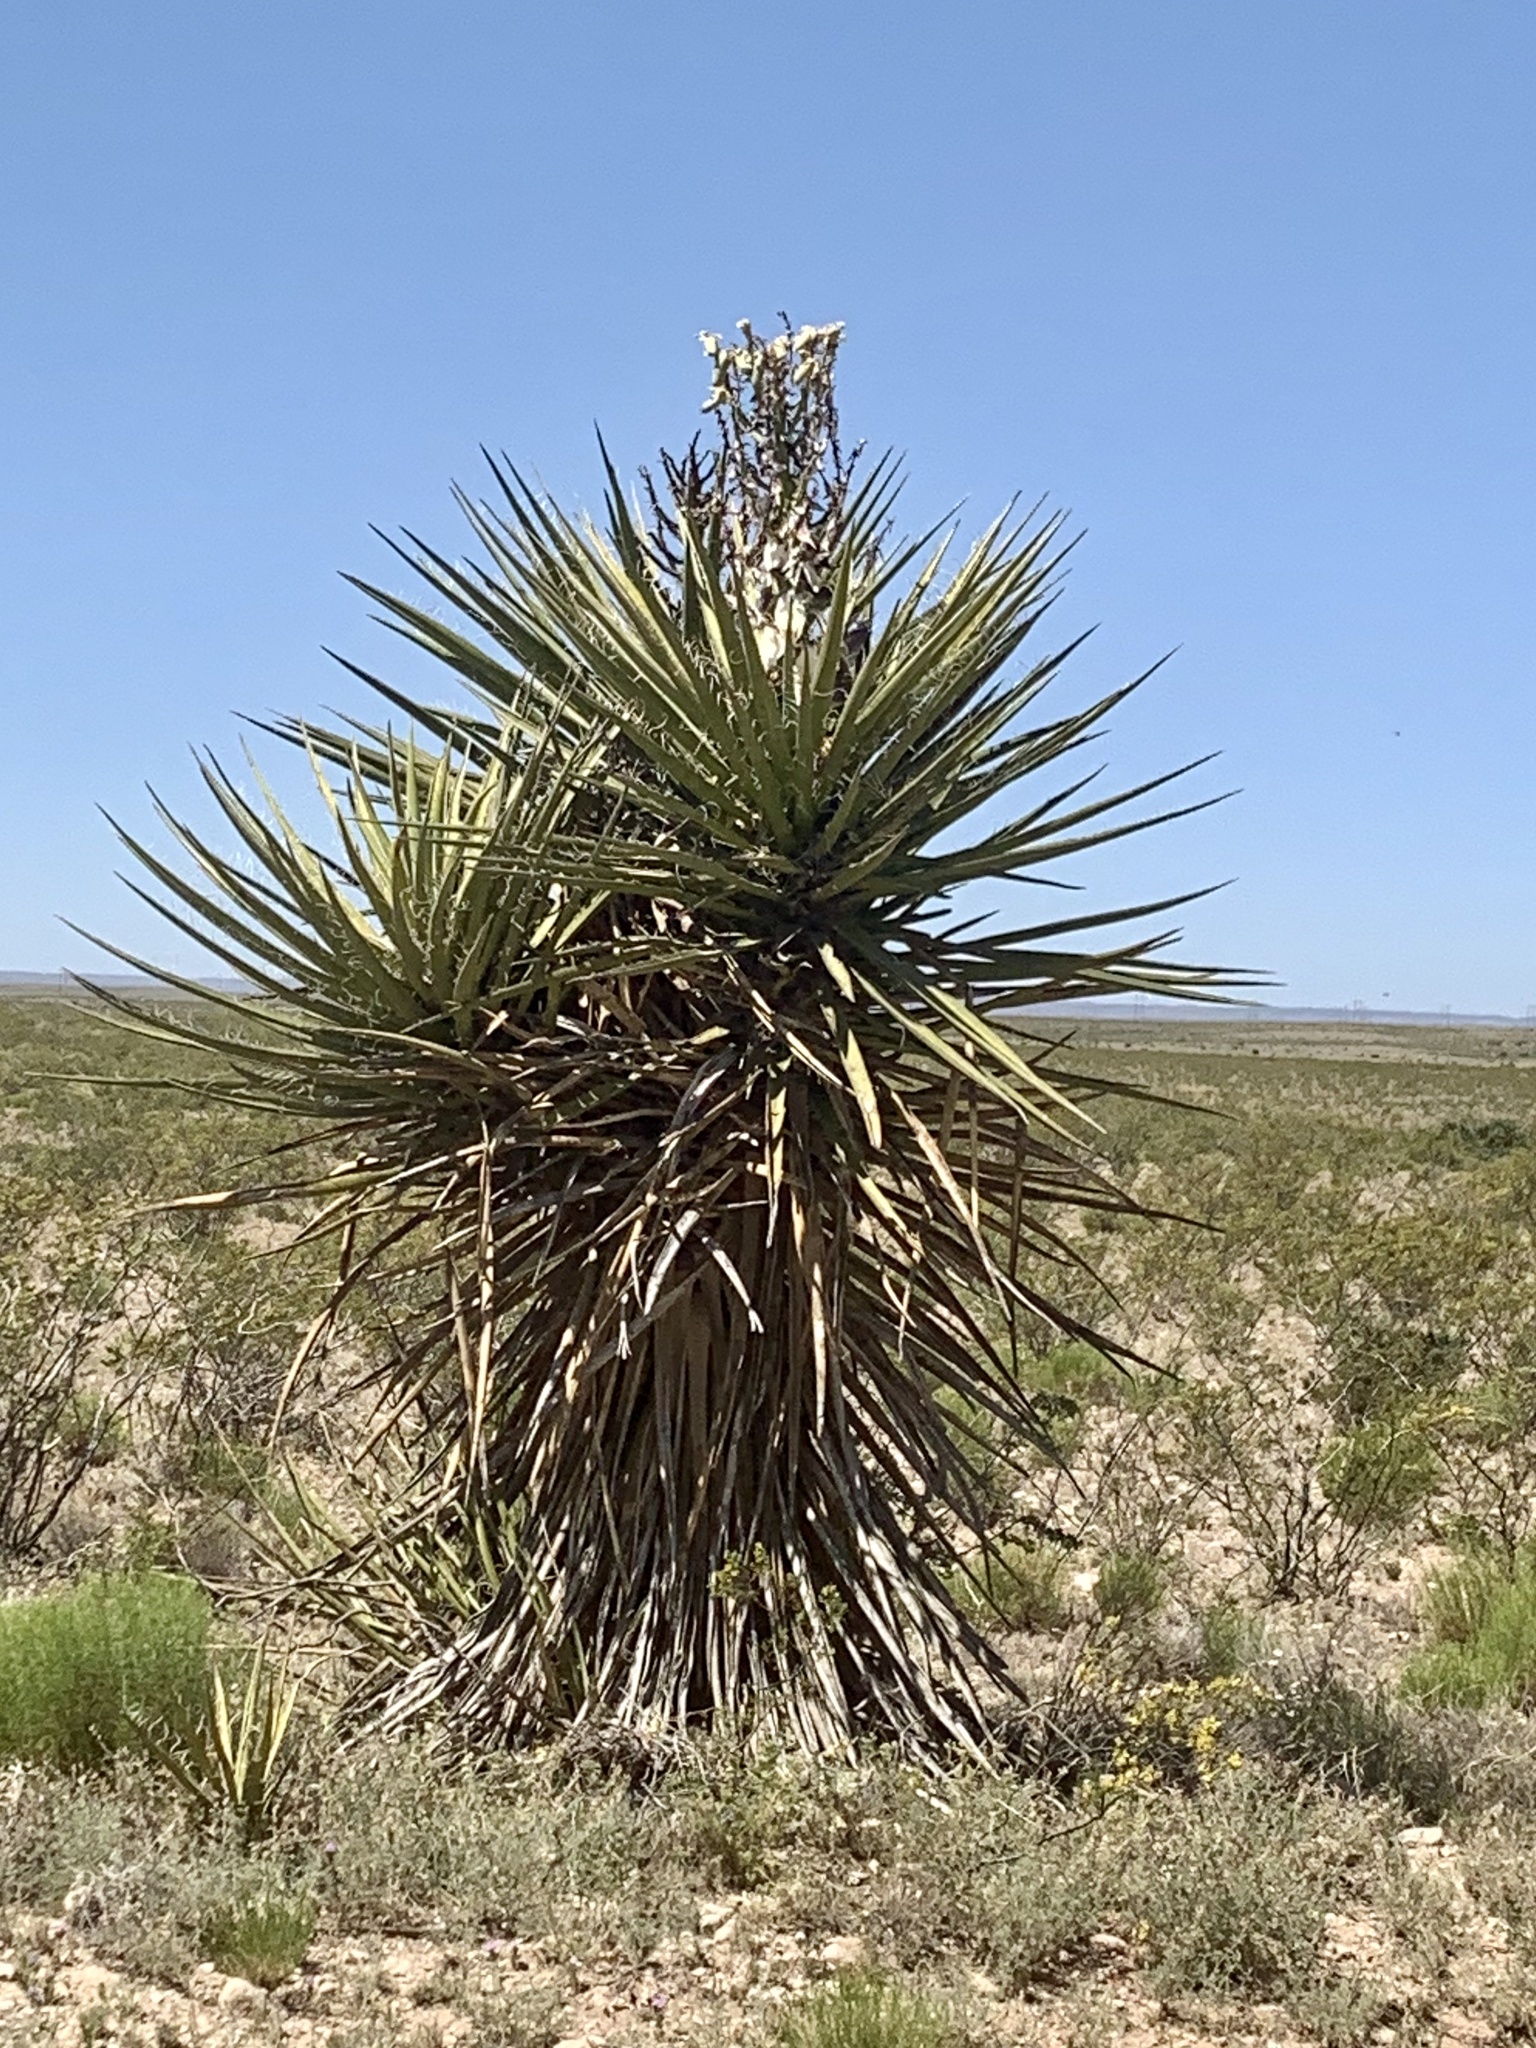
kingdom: Plantae
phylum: Tracheophyta
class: Liliopsida
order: Asparagales
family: Asparagaceae
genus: Yucca
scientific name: Yucca treculiana
